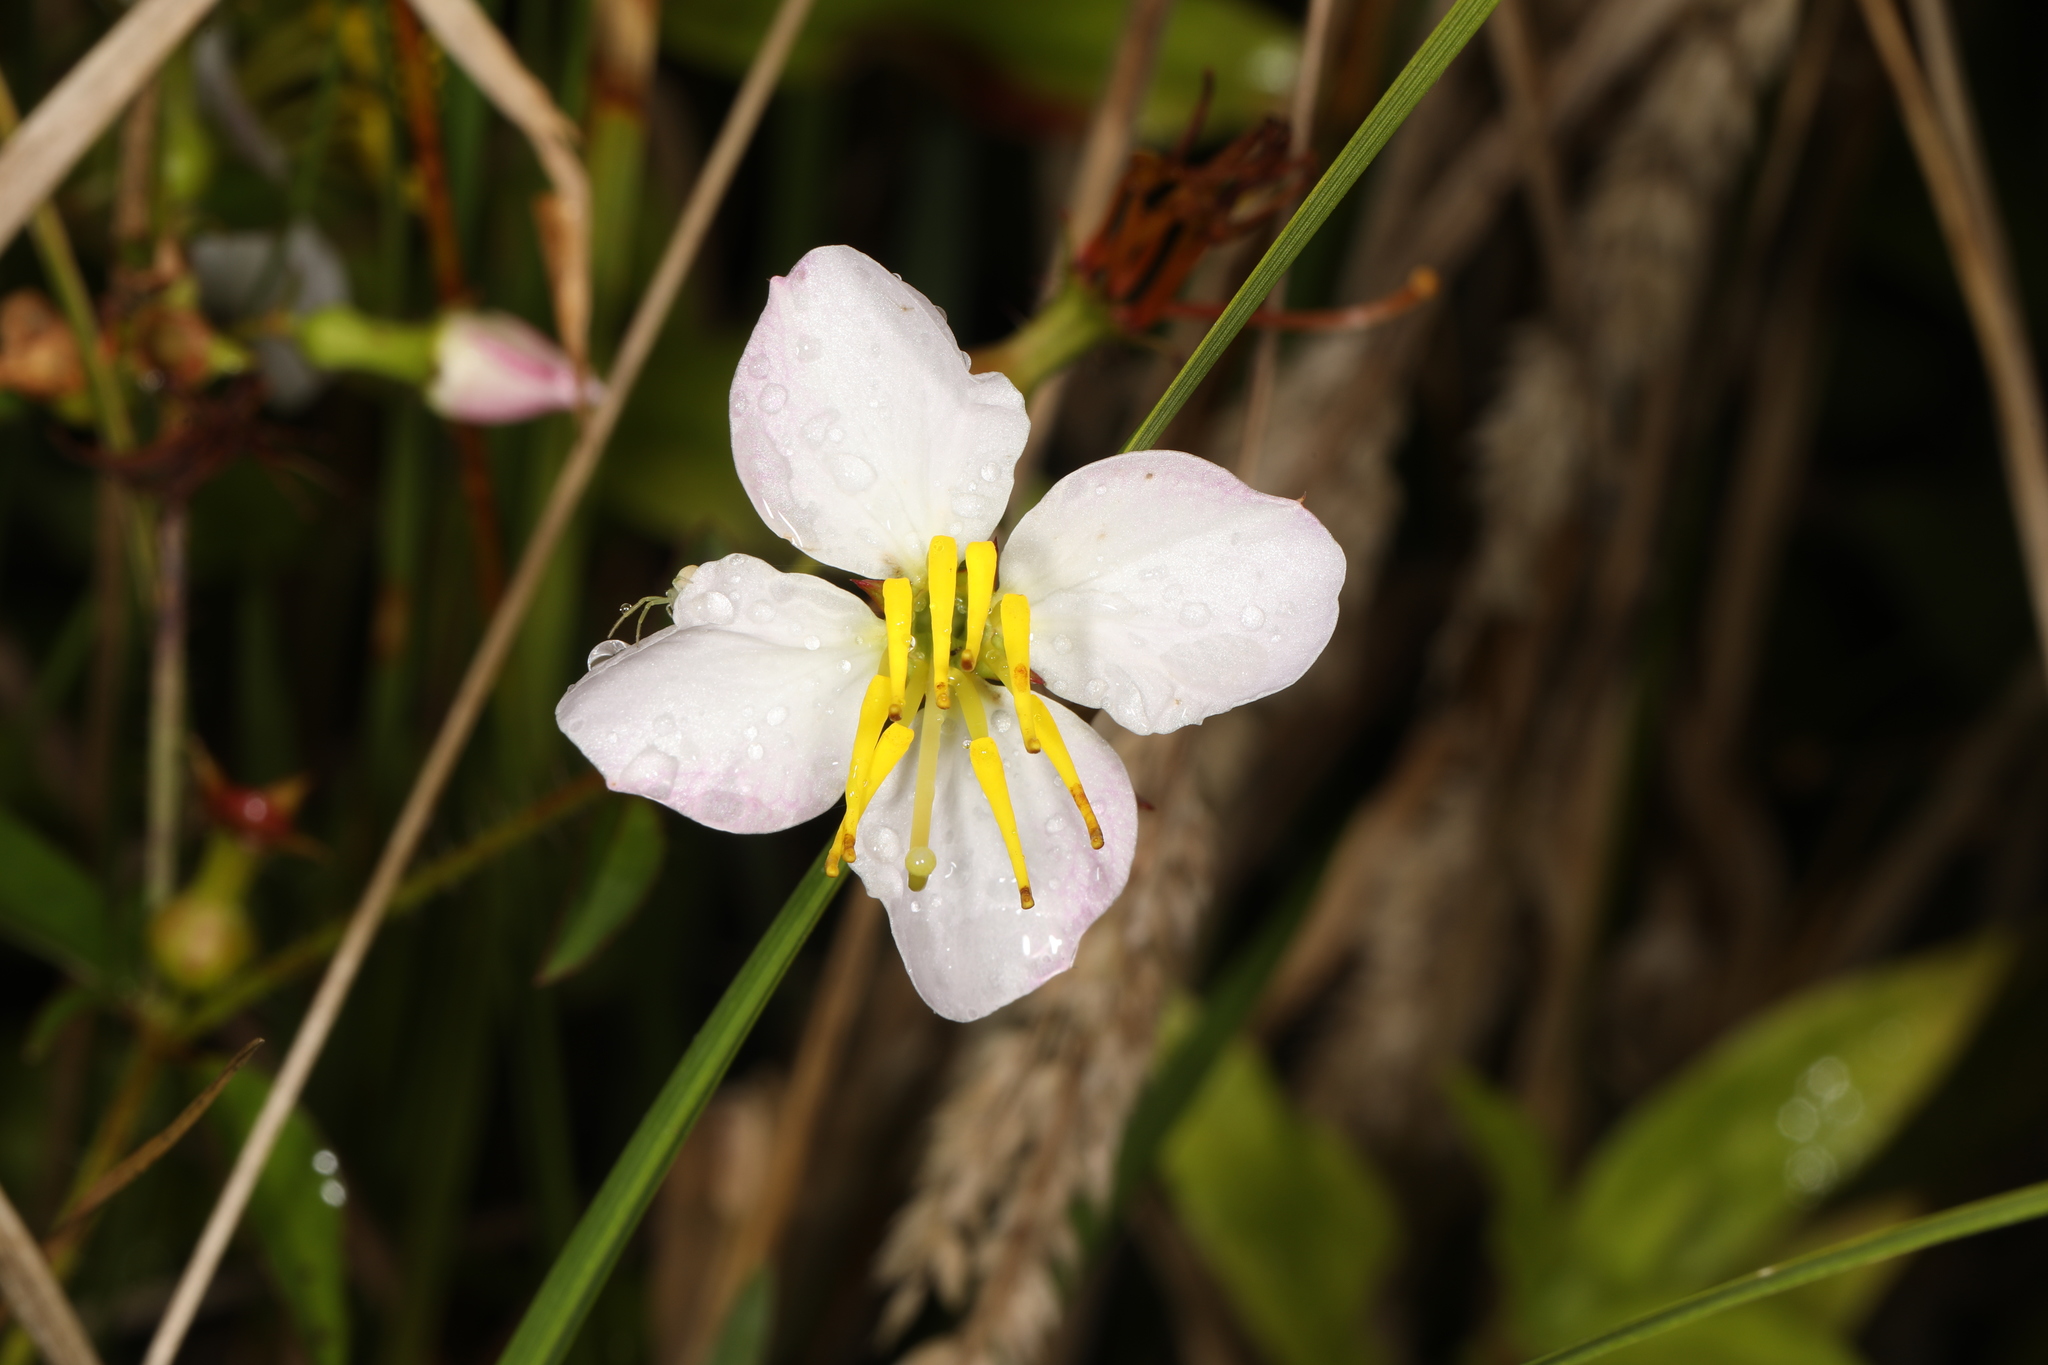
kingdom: Plantae
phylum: Tracheophyta
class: Magnoliopsida
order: Myrtales
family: Melastomataceae
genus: Rhexia
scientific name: Rhexia mariana
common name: Dull meadow-pitcher
